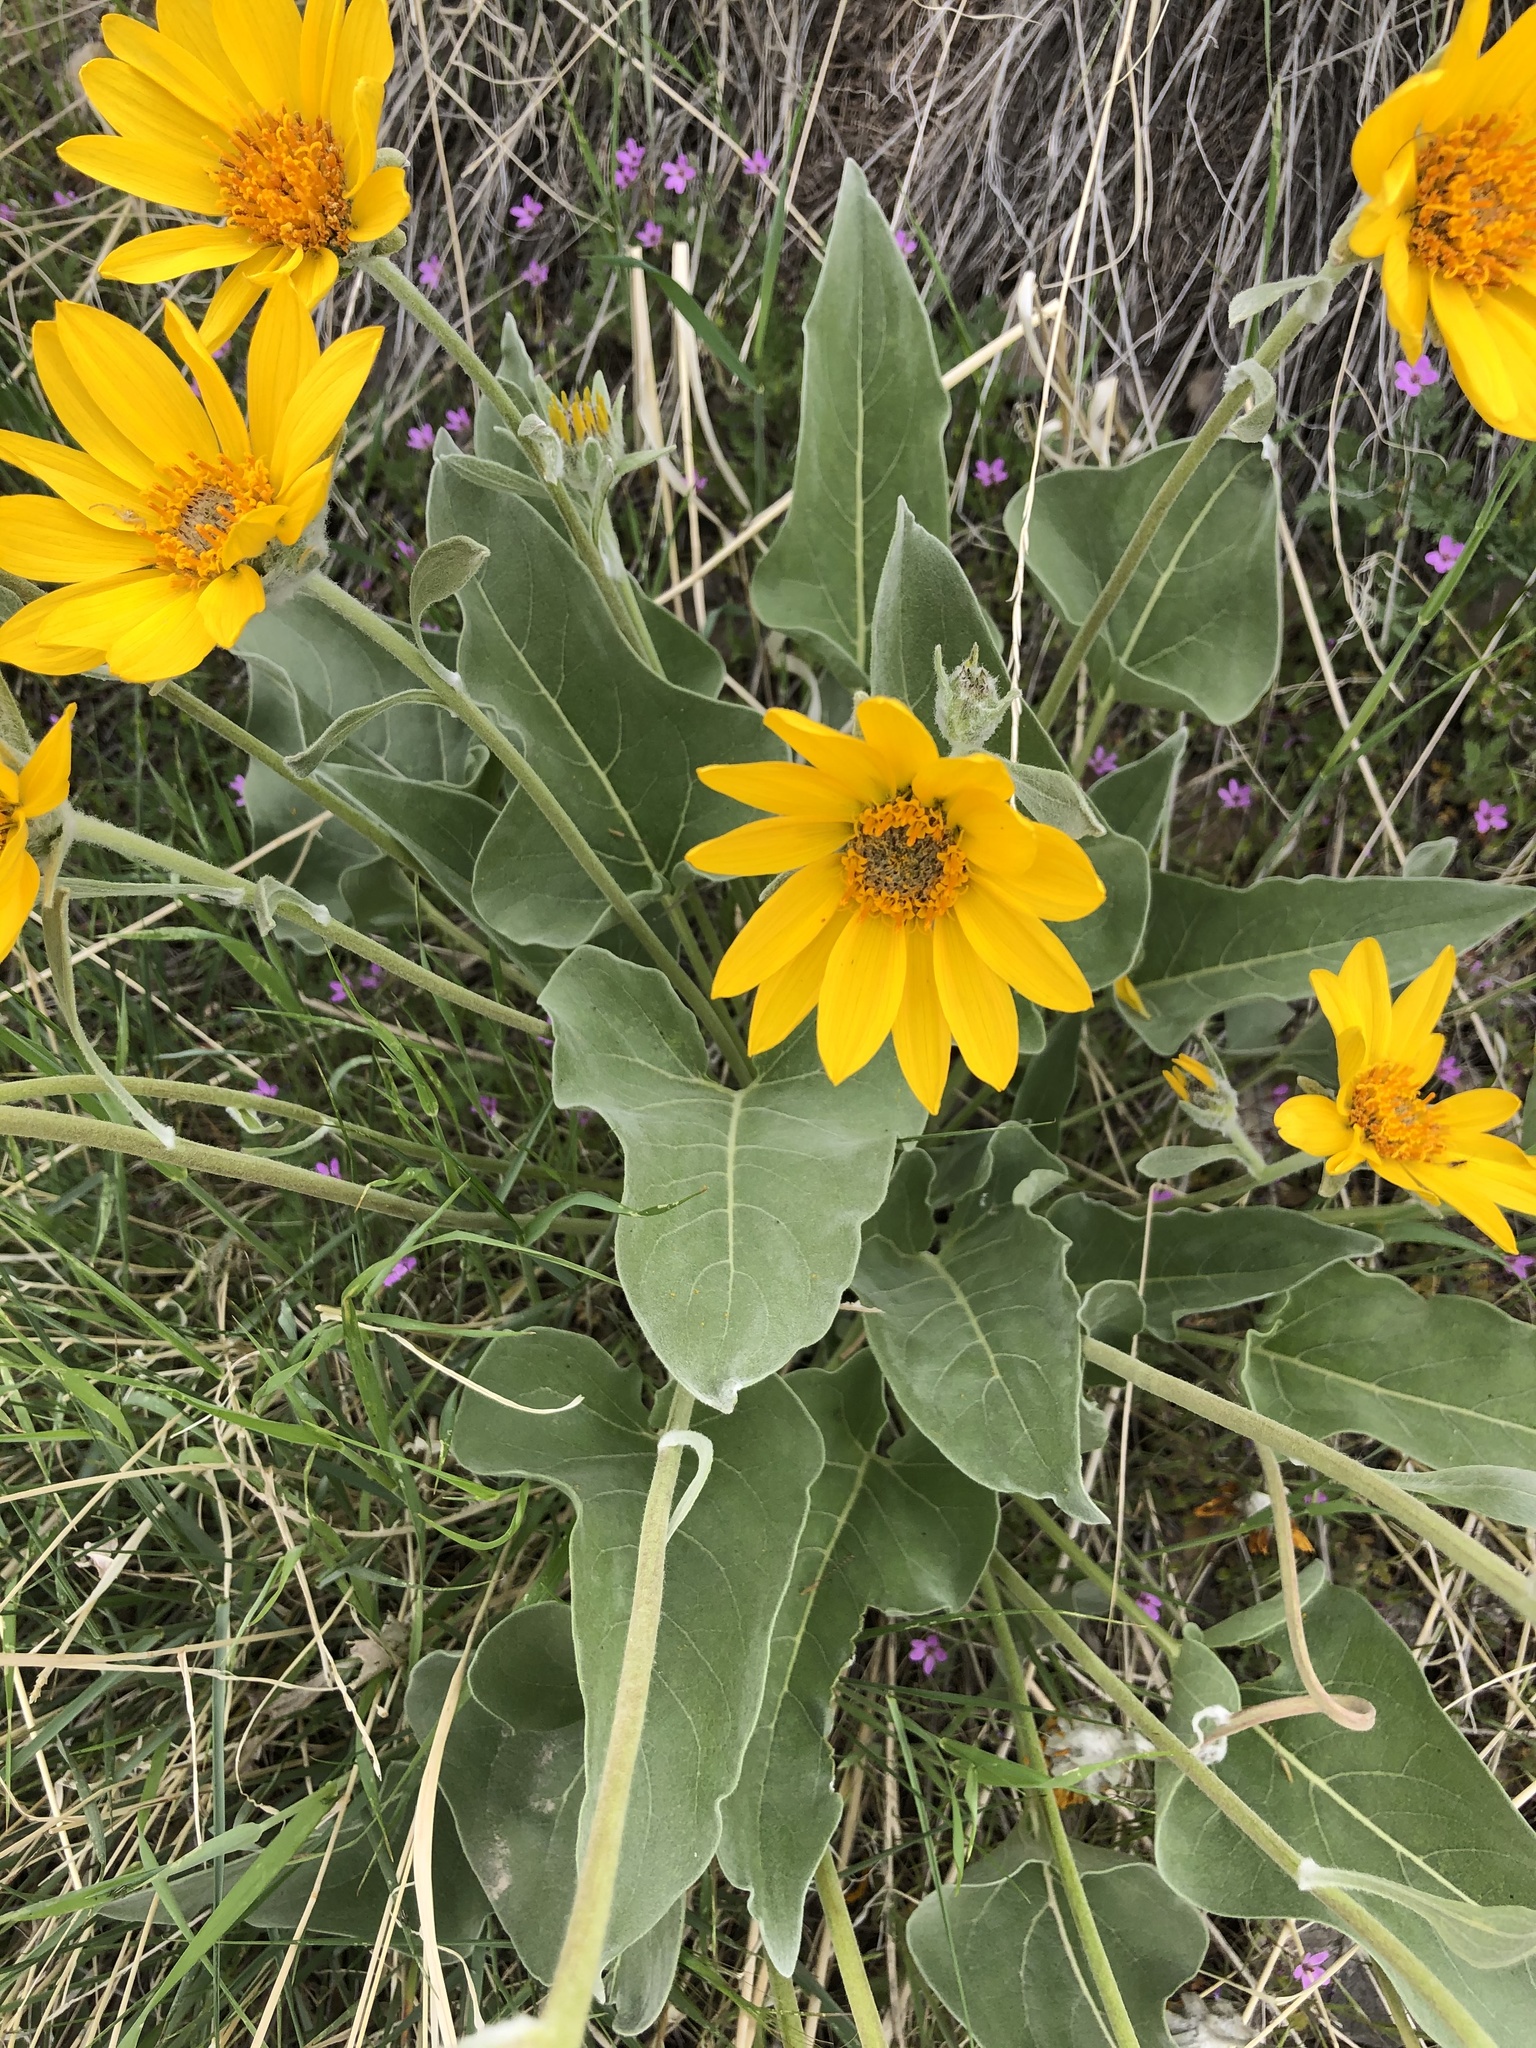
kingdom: Plantae
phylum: Tracheophyta
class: Magnoliopsida
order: Asterales
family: Asteraceae
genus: Wyethia
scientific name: Wyethia sagittata
